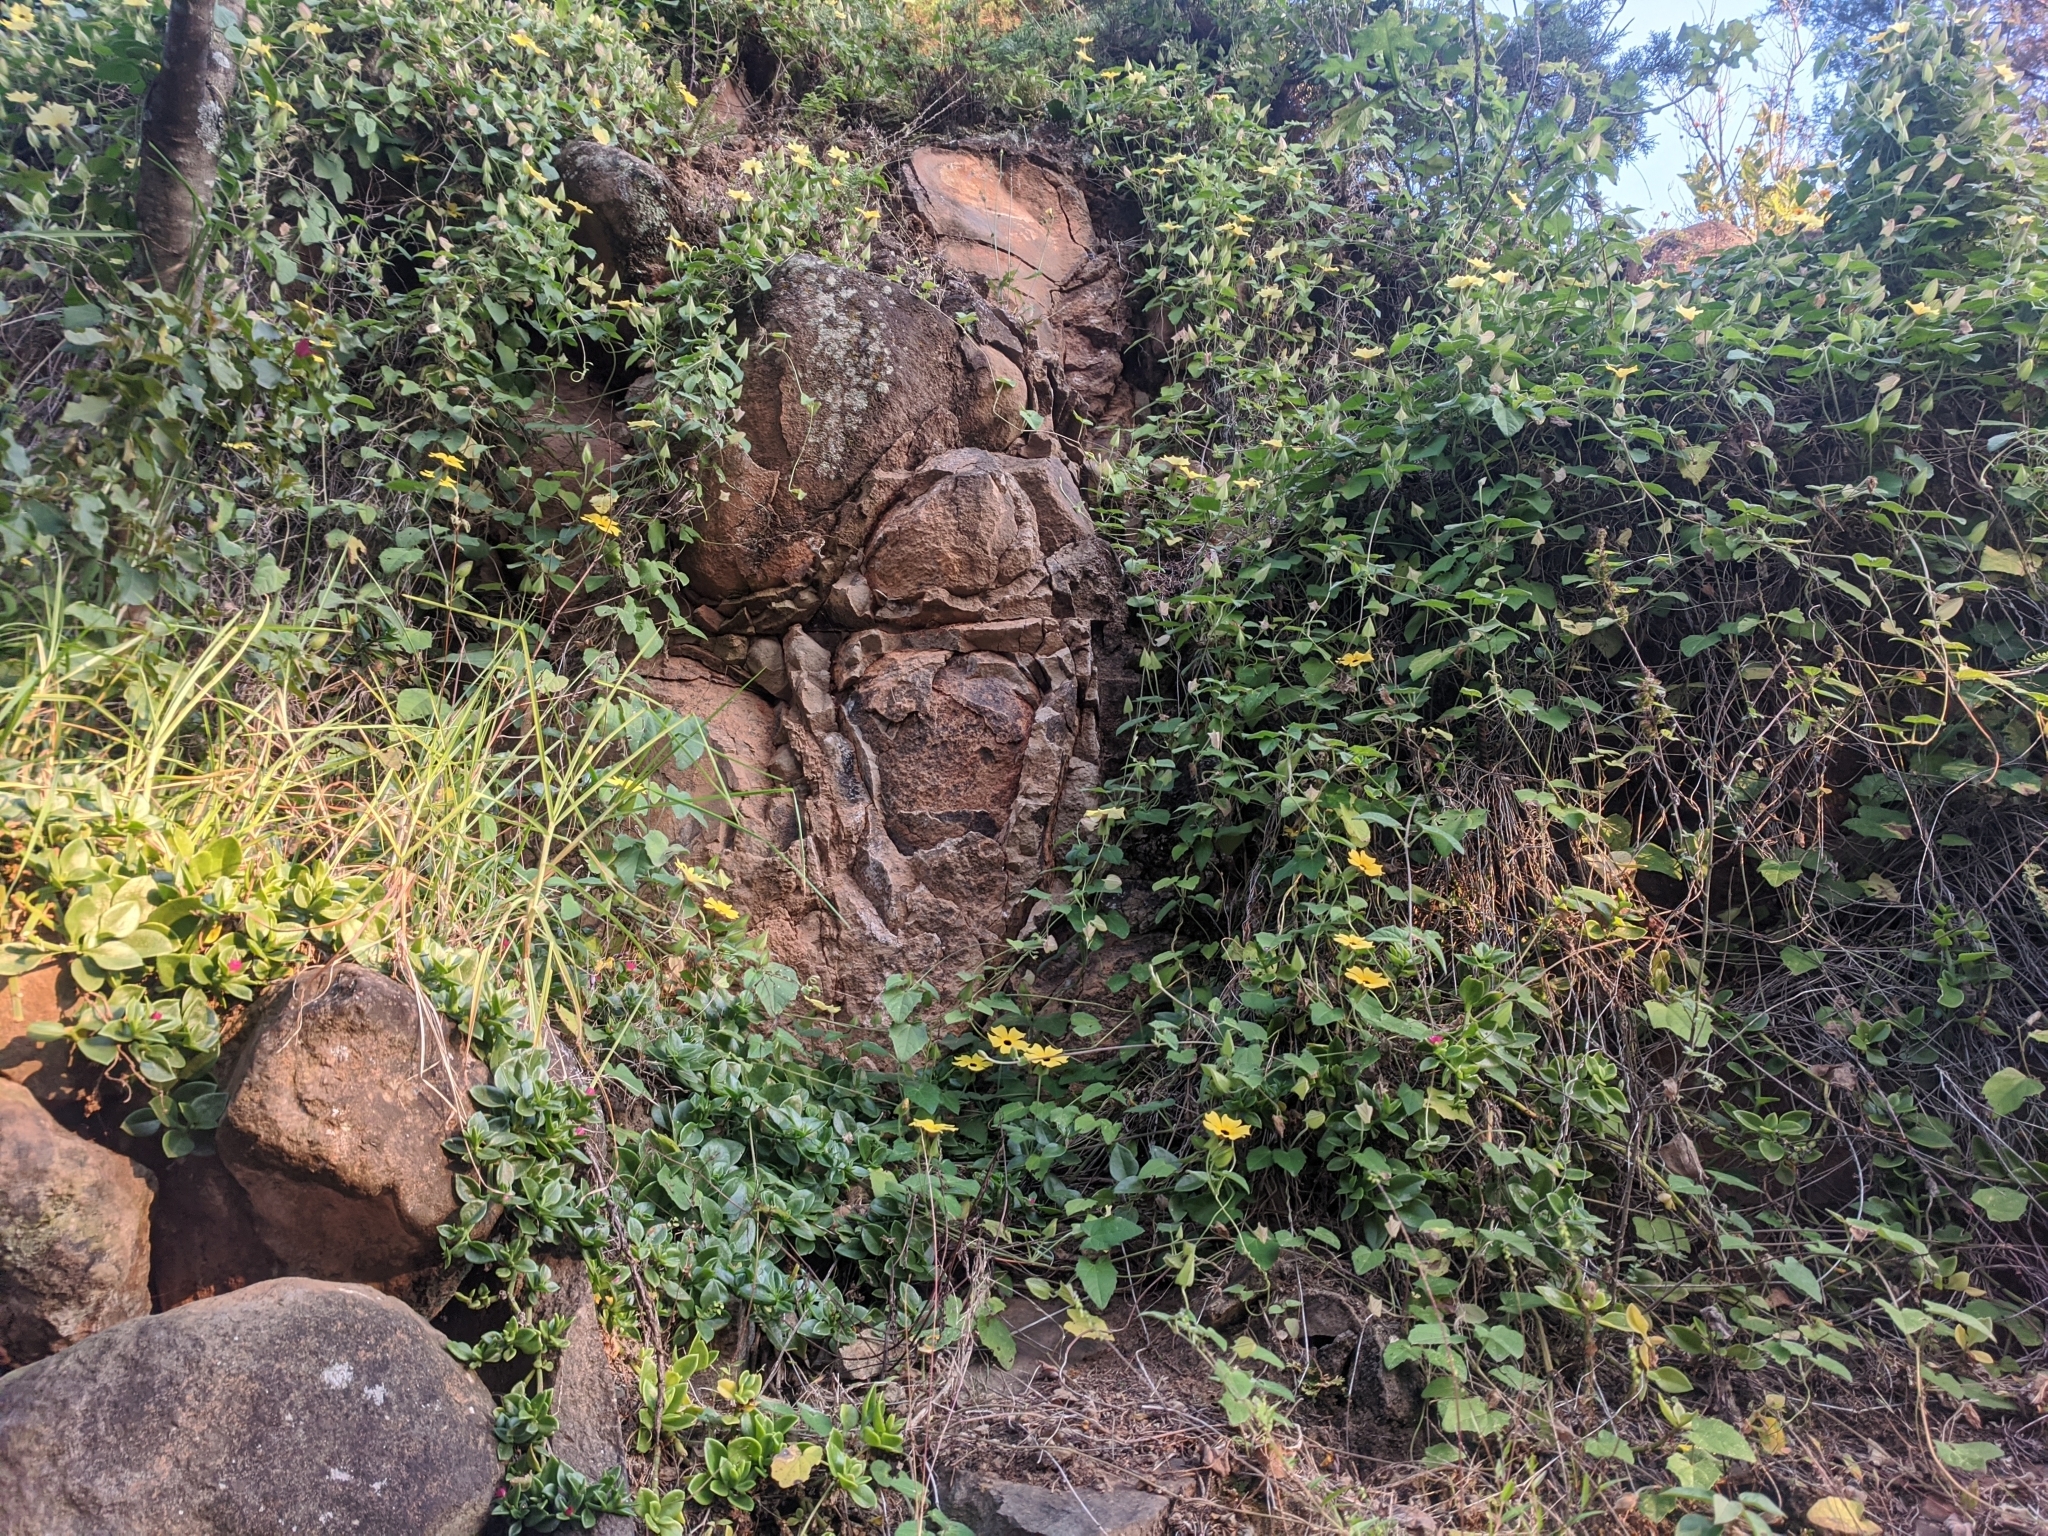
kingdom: Plantae
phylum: Tracheophyta
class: Magnoliopsida
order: Lamiales
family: Acanthaceae
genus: Thunbergia
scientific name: Thunbergia alata
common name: Blackeyed susan vine
